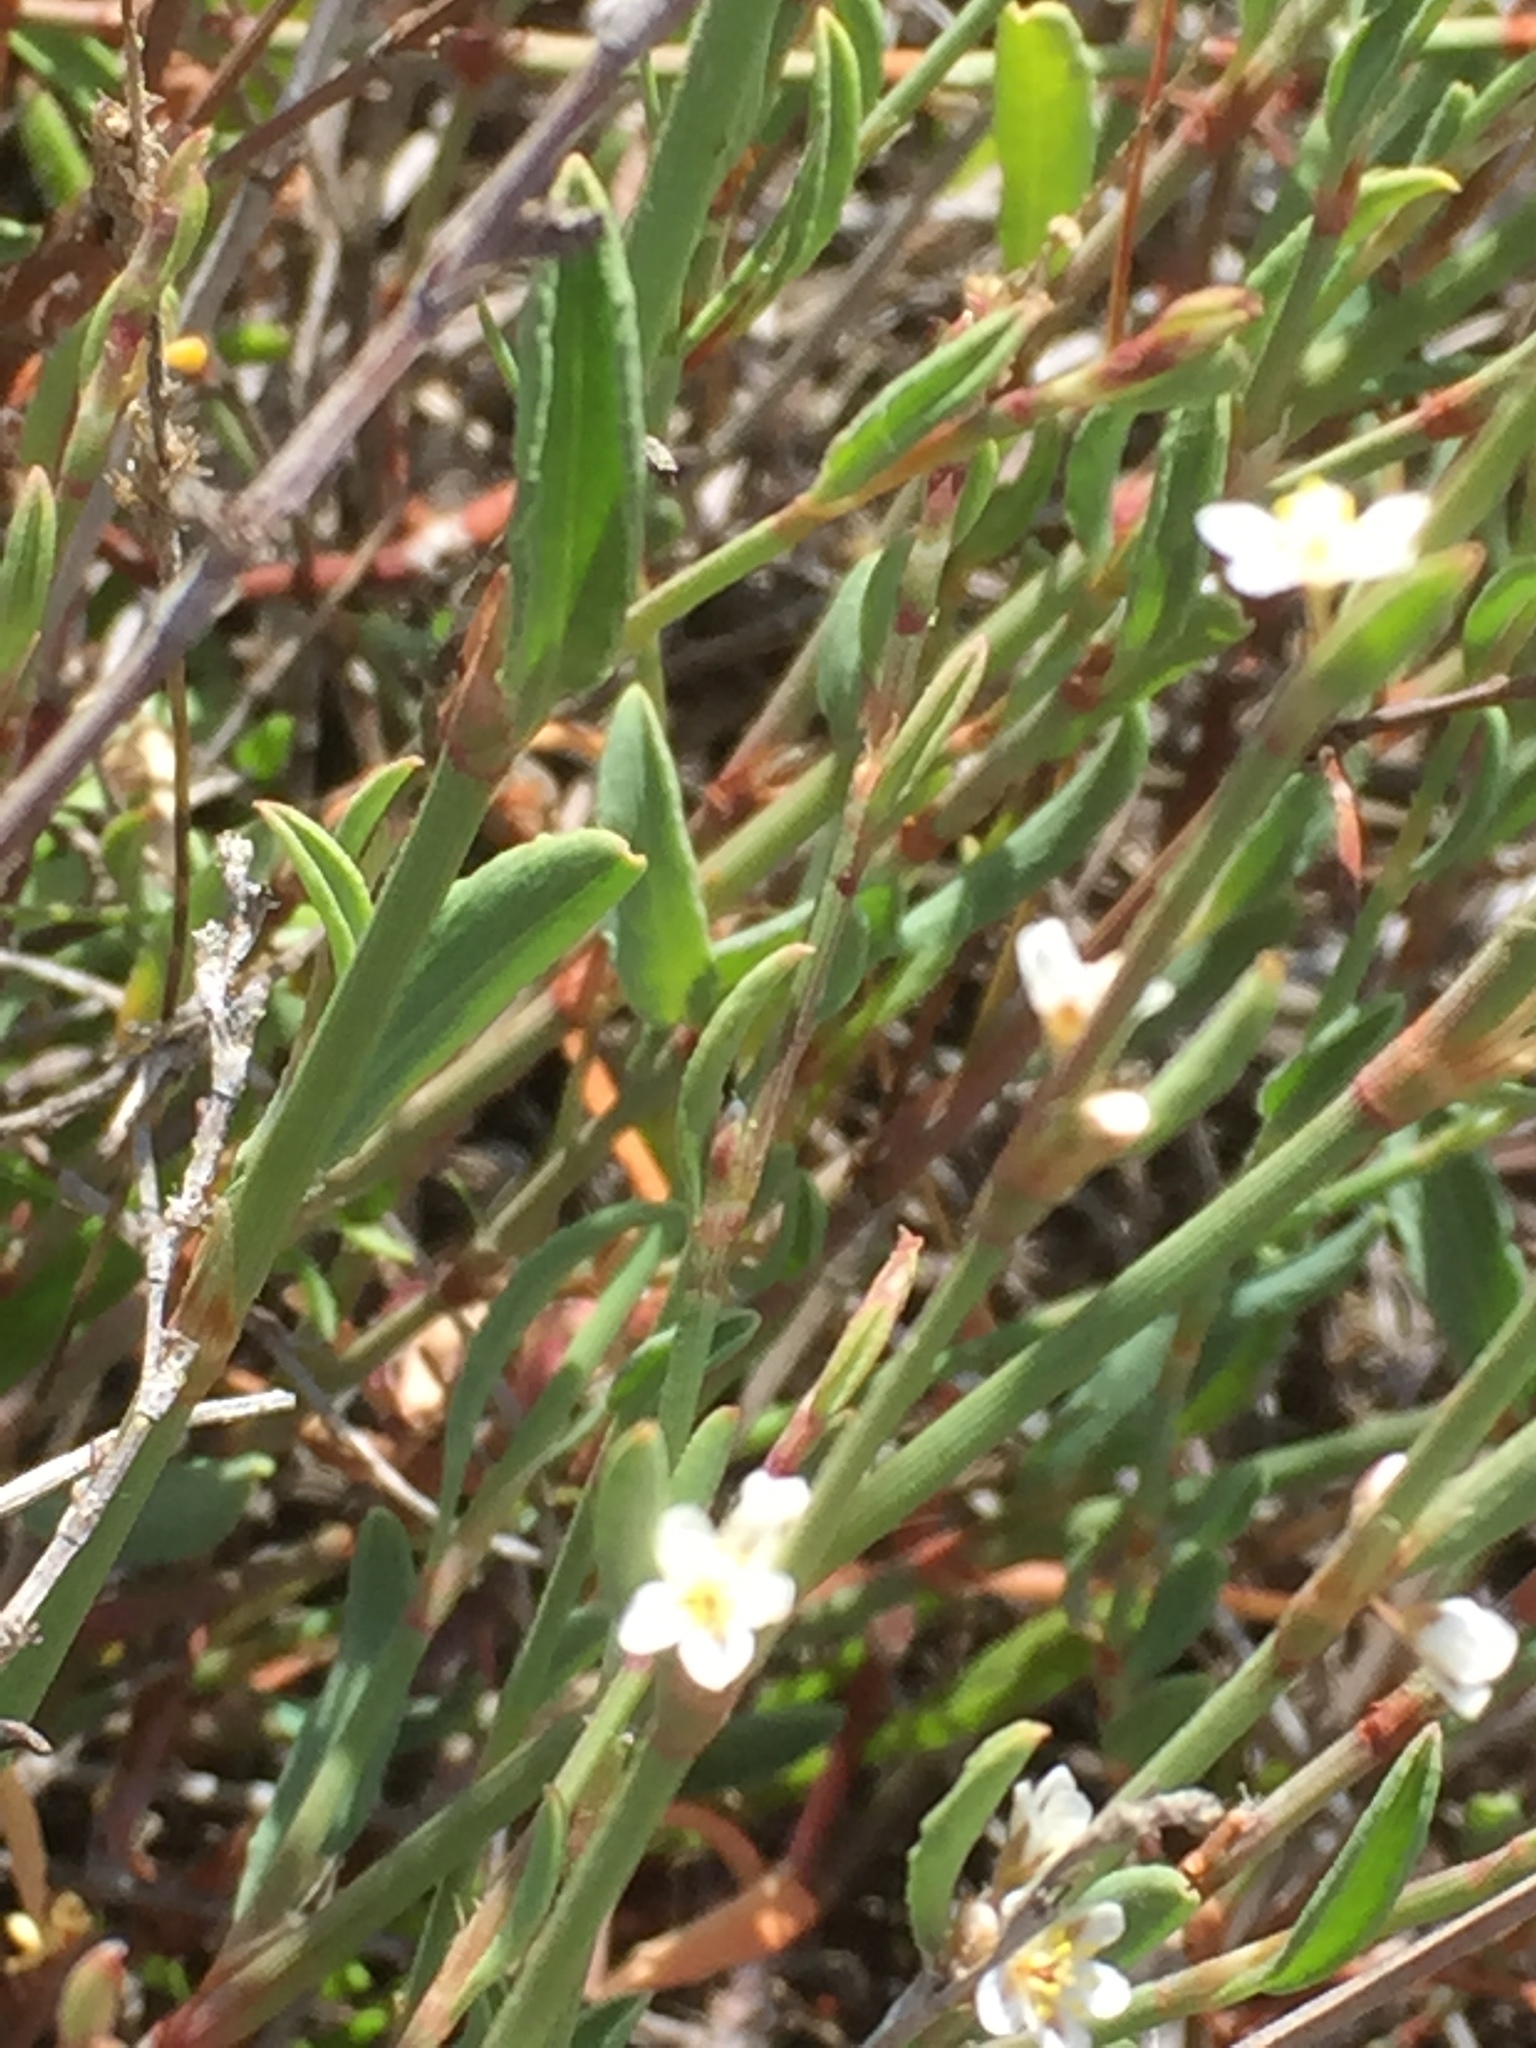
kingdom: Plantae
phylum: Tracheophyta
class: Magnoliopsida
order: Caryophyllales
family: Polygonaceae
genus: Polygonum
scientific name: Polygonum equisetiforme
